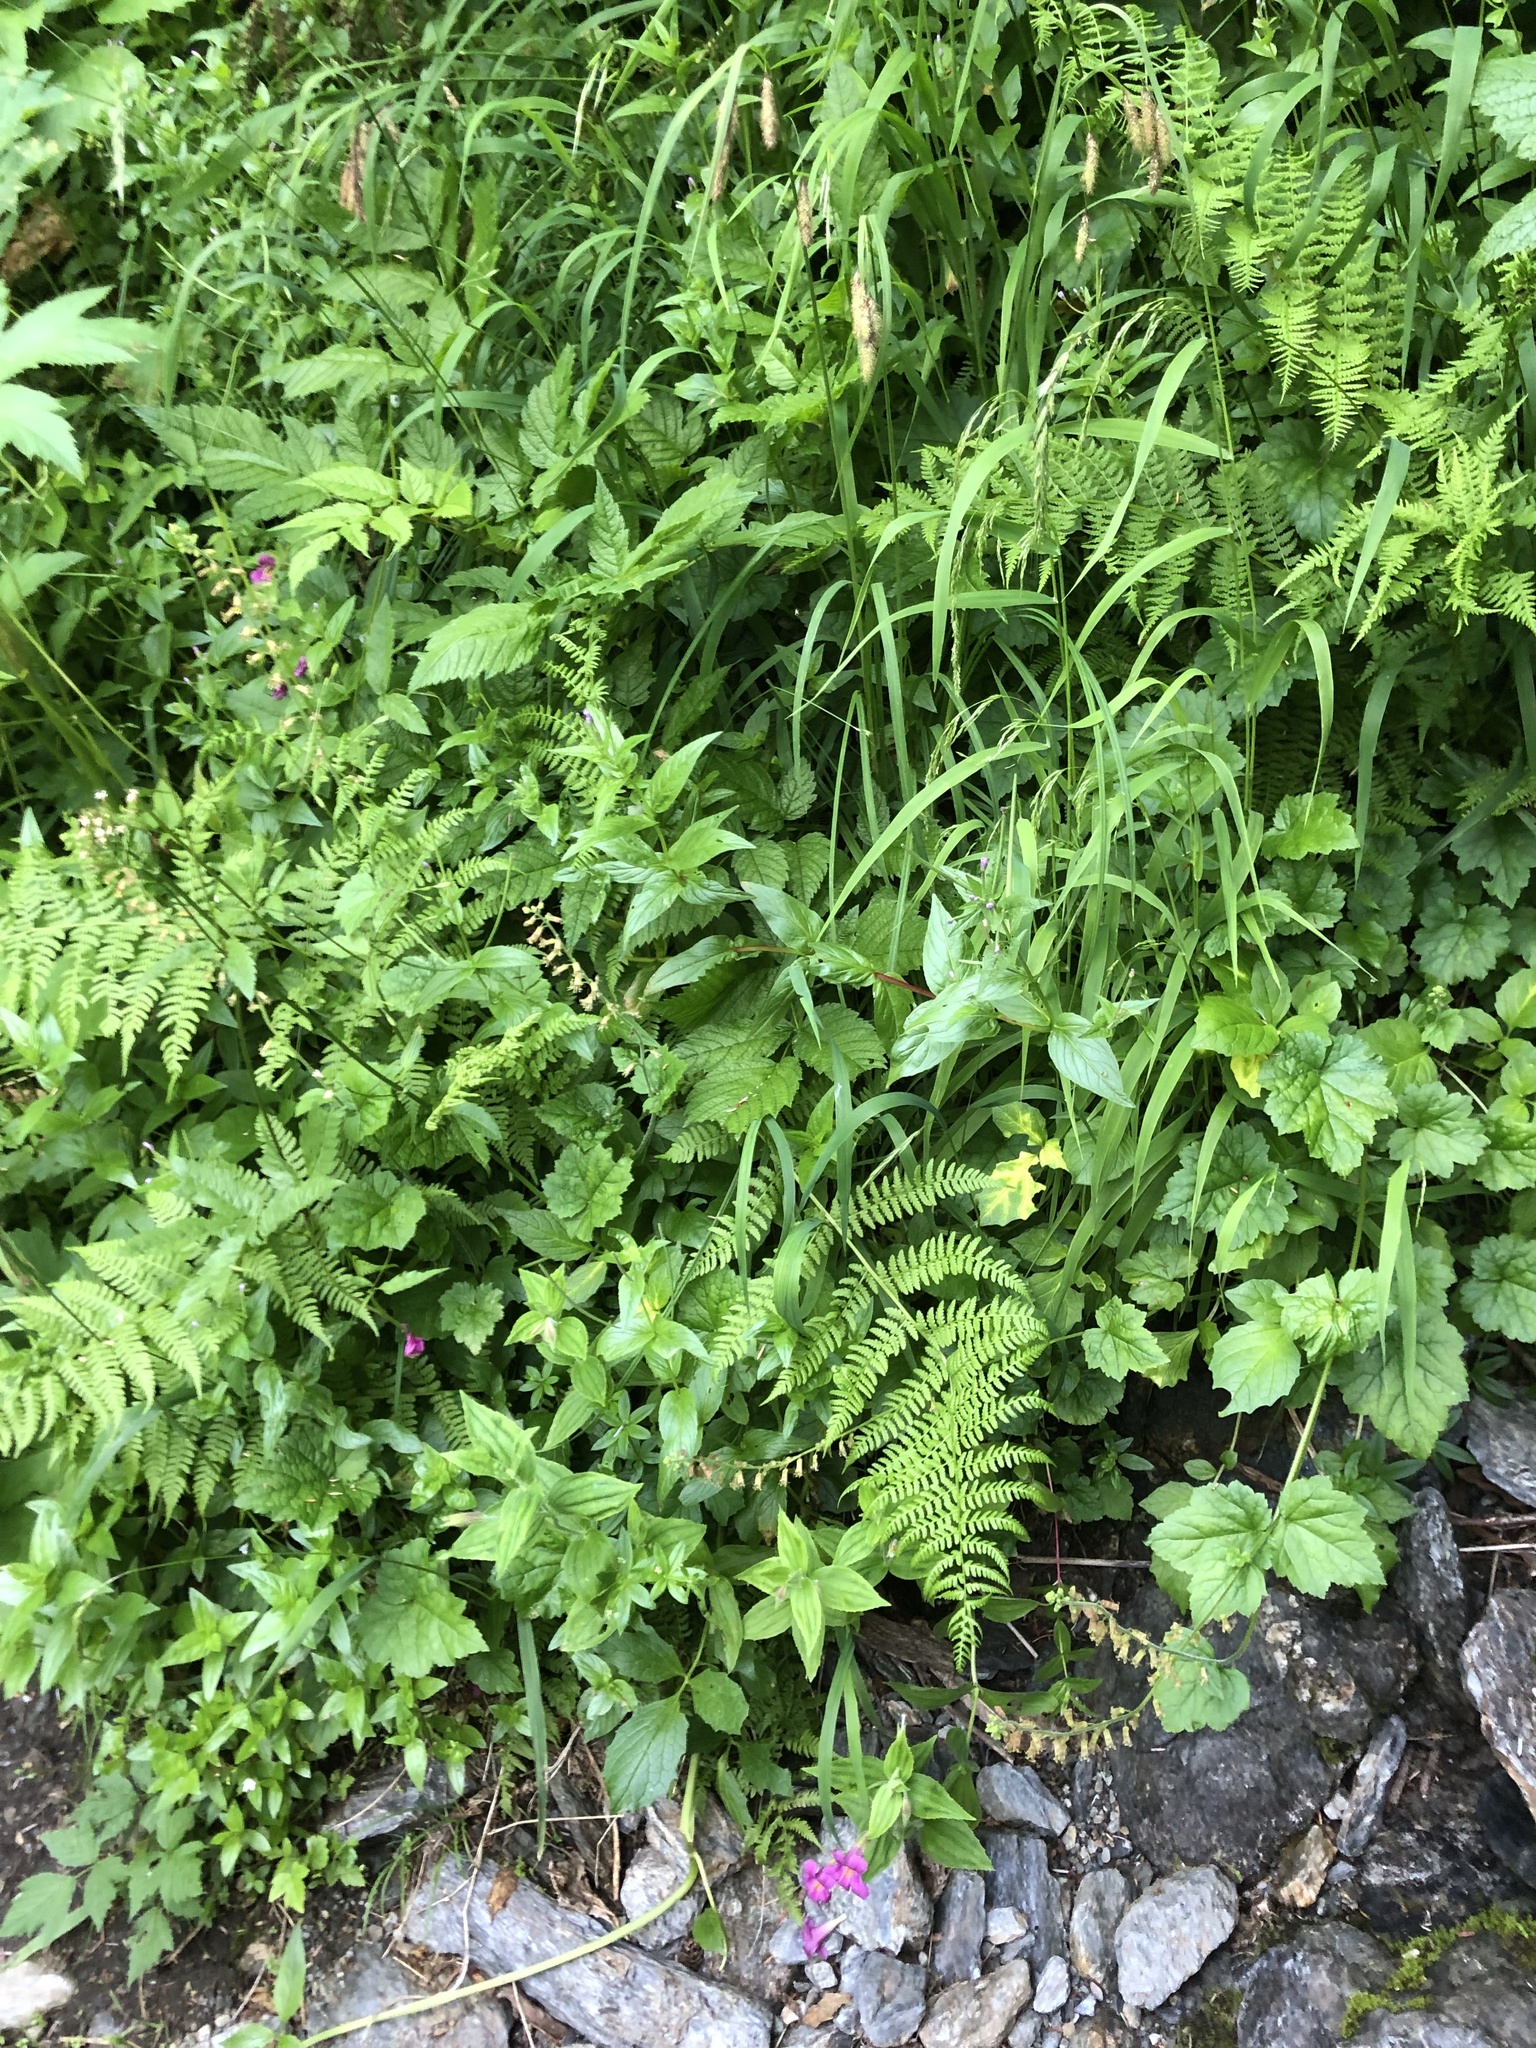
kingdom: Plantae
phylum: Tracheophyta
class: Magnoliopsida
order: Lamiales
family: Phrymaceae
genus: Erythranthe
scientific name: Erythranthe lewisii
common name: Lewis's monkey-flower
